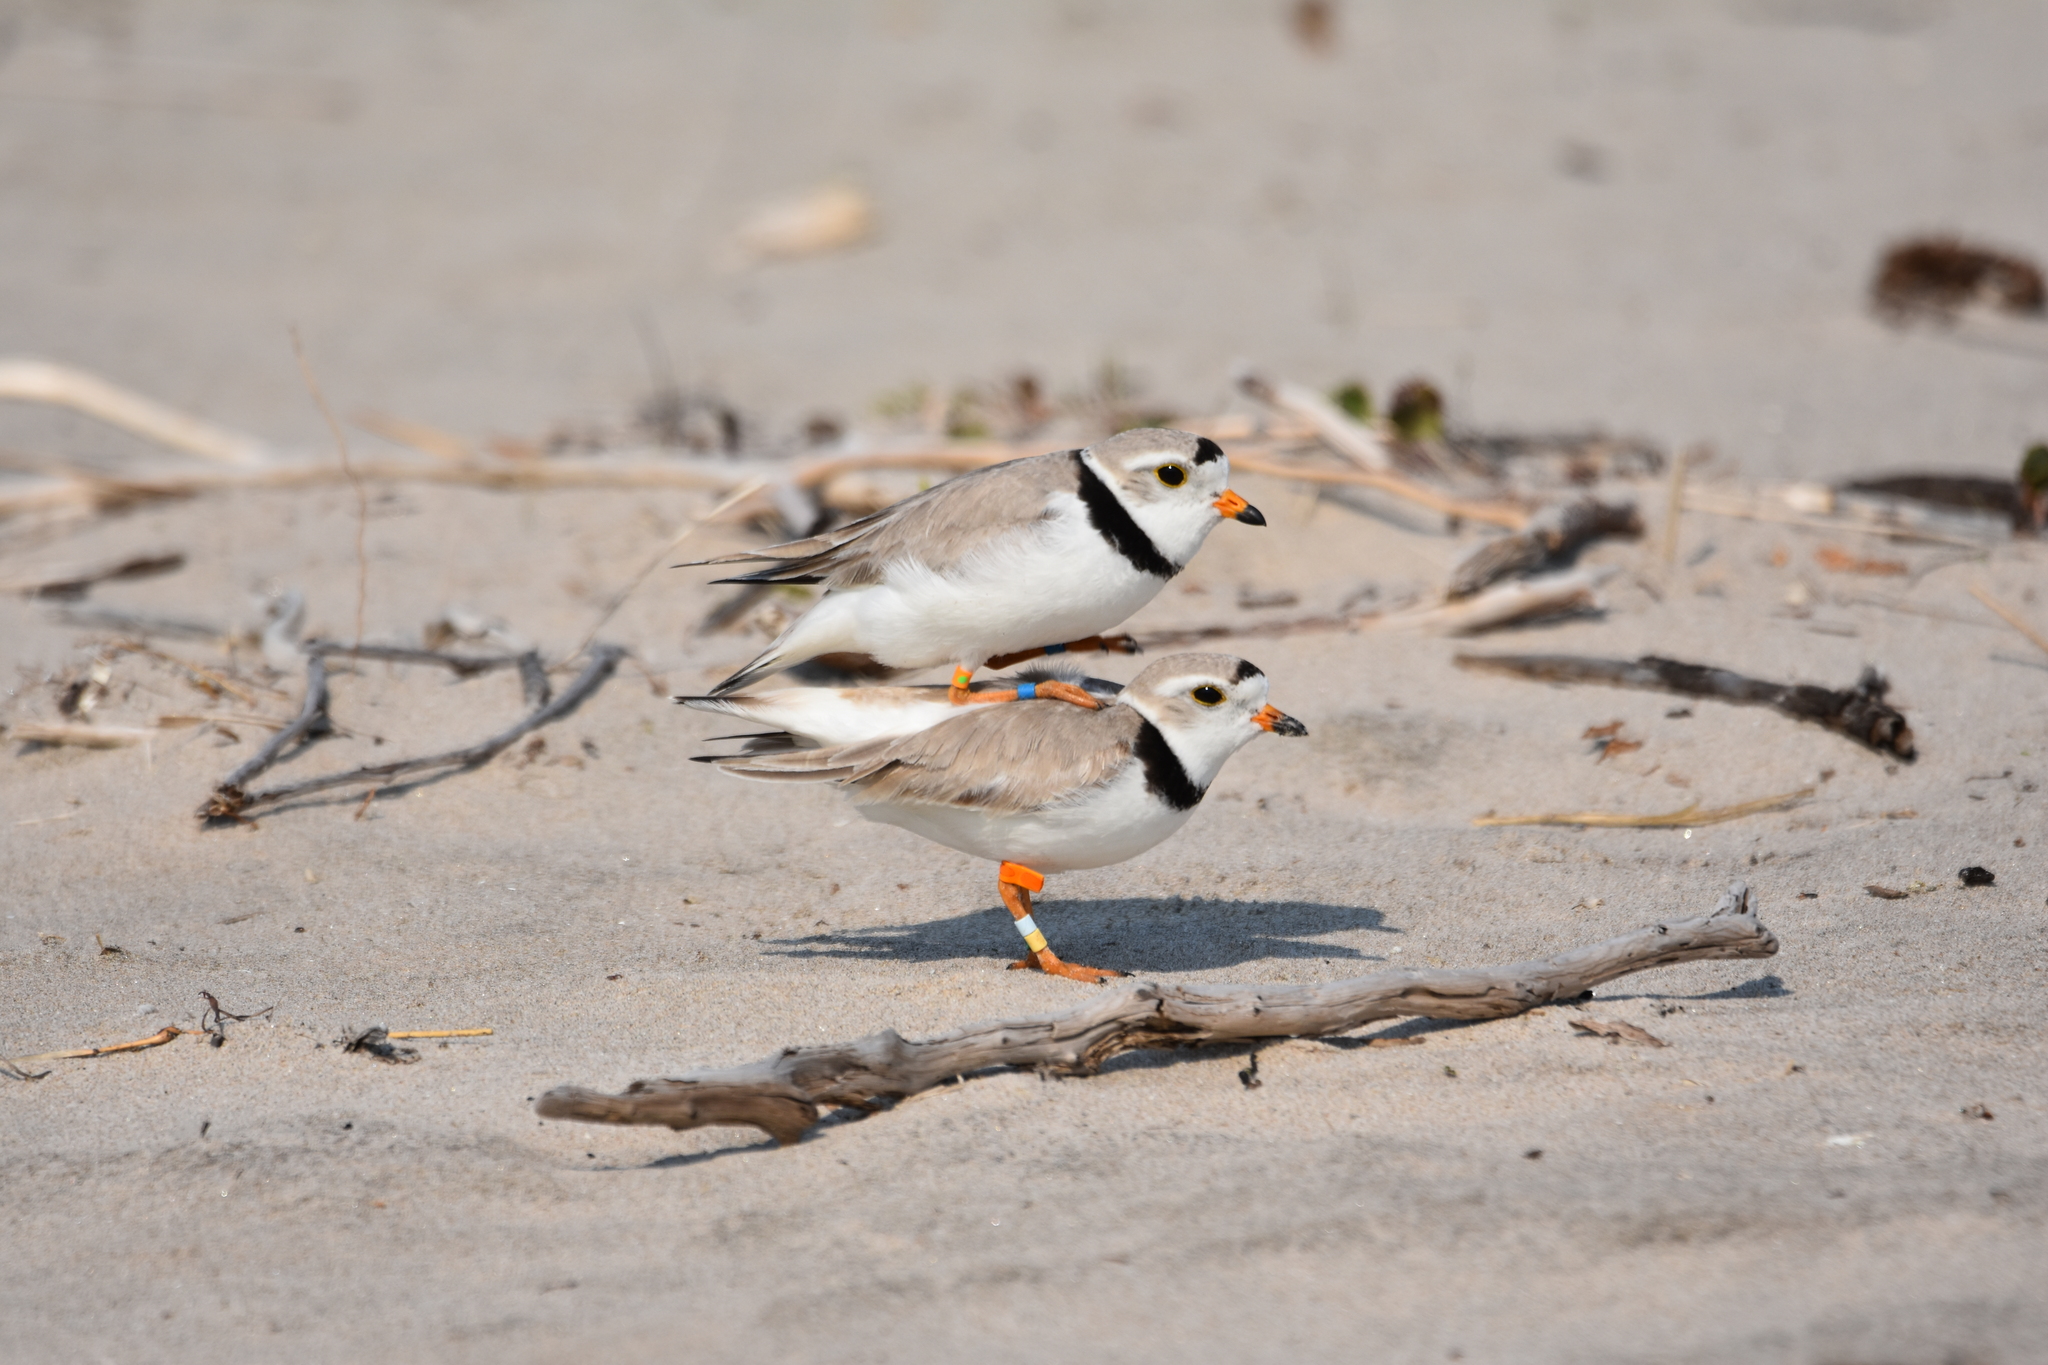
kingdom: Animalia
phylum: Chordata
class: Aves
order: Charadriiformes
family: Charadriidae
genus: Charadrius
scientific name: Charadrius melodus
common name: Piping plover
